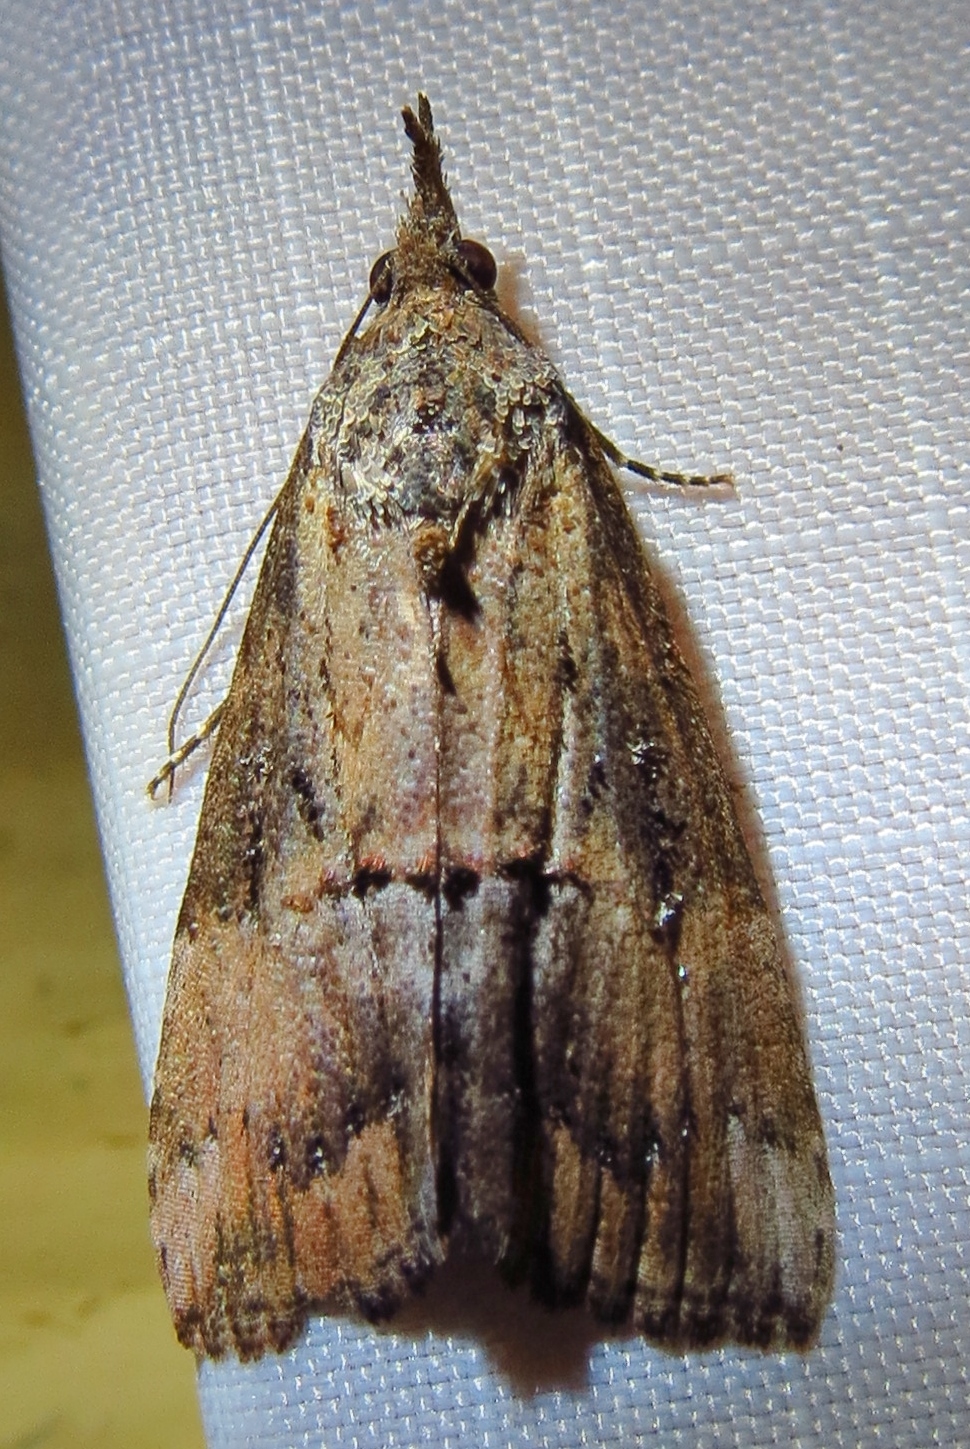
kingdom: Animalia
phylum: Arthropoda
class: Insecta
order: Lepidoptera
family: Erebidae
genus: Hypena
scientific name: Hypena scabra
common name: Green cloverworm
